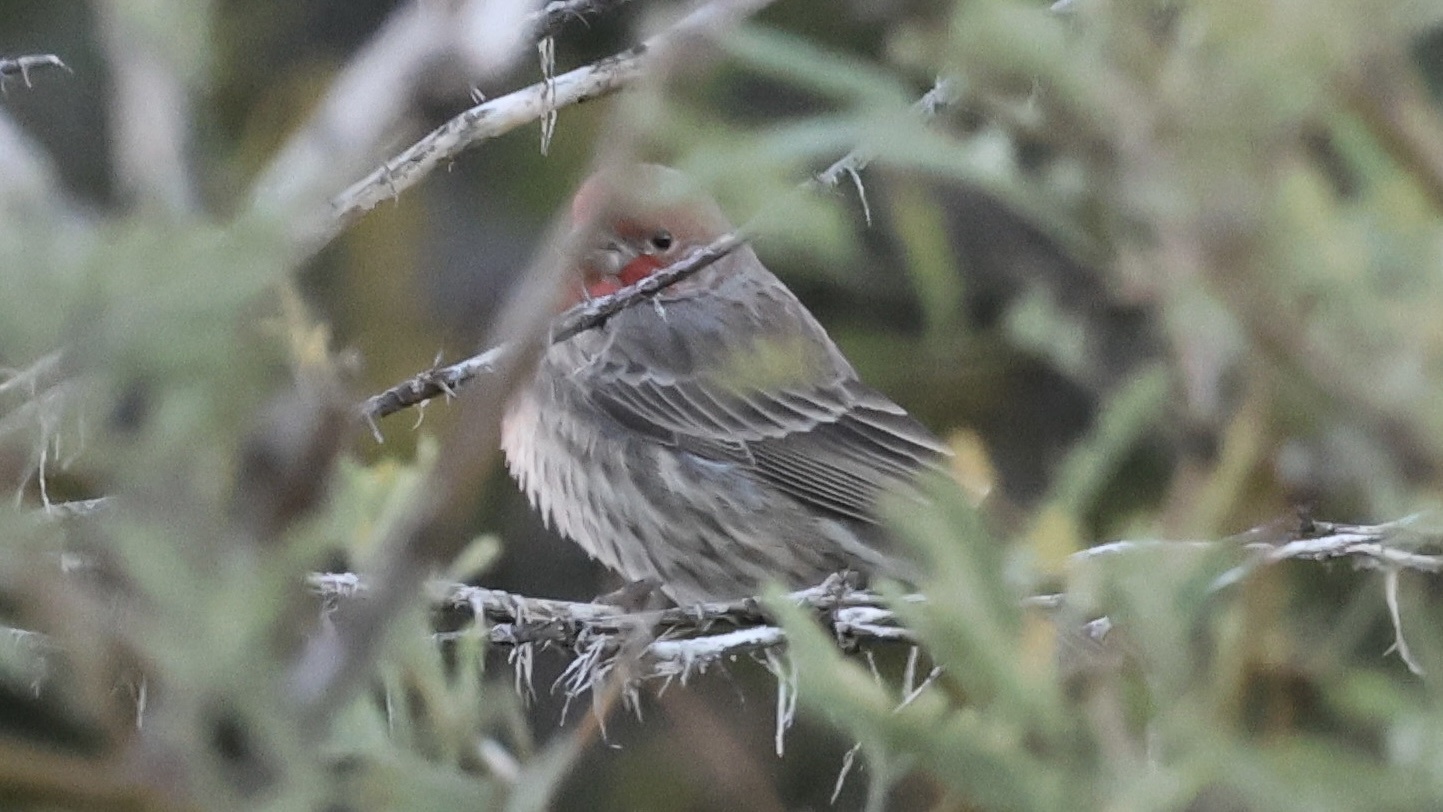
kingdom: Animalia
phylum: Chordata
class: Aves
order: Passeriformes
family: Fringillidae
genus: Haemorhous
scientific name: Haemorhous mexicanus
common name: House finch
